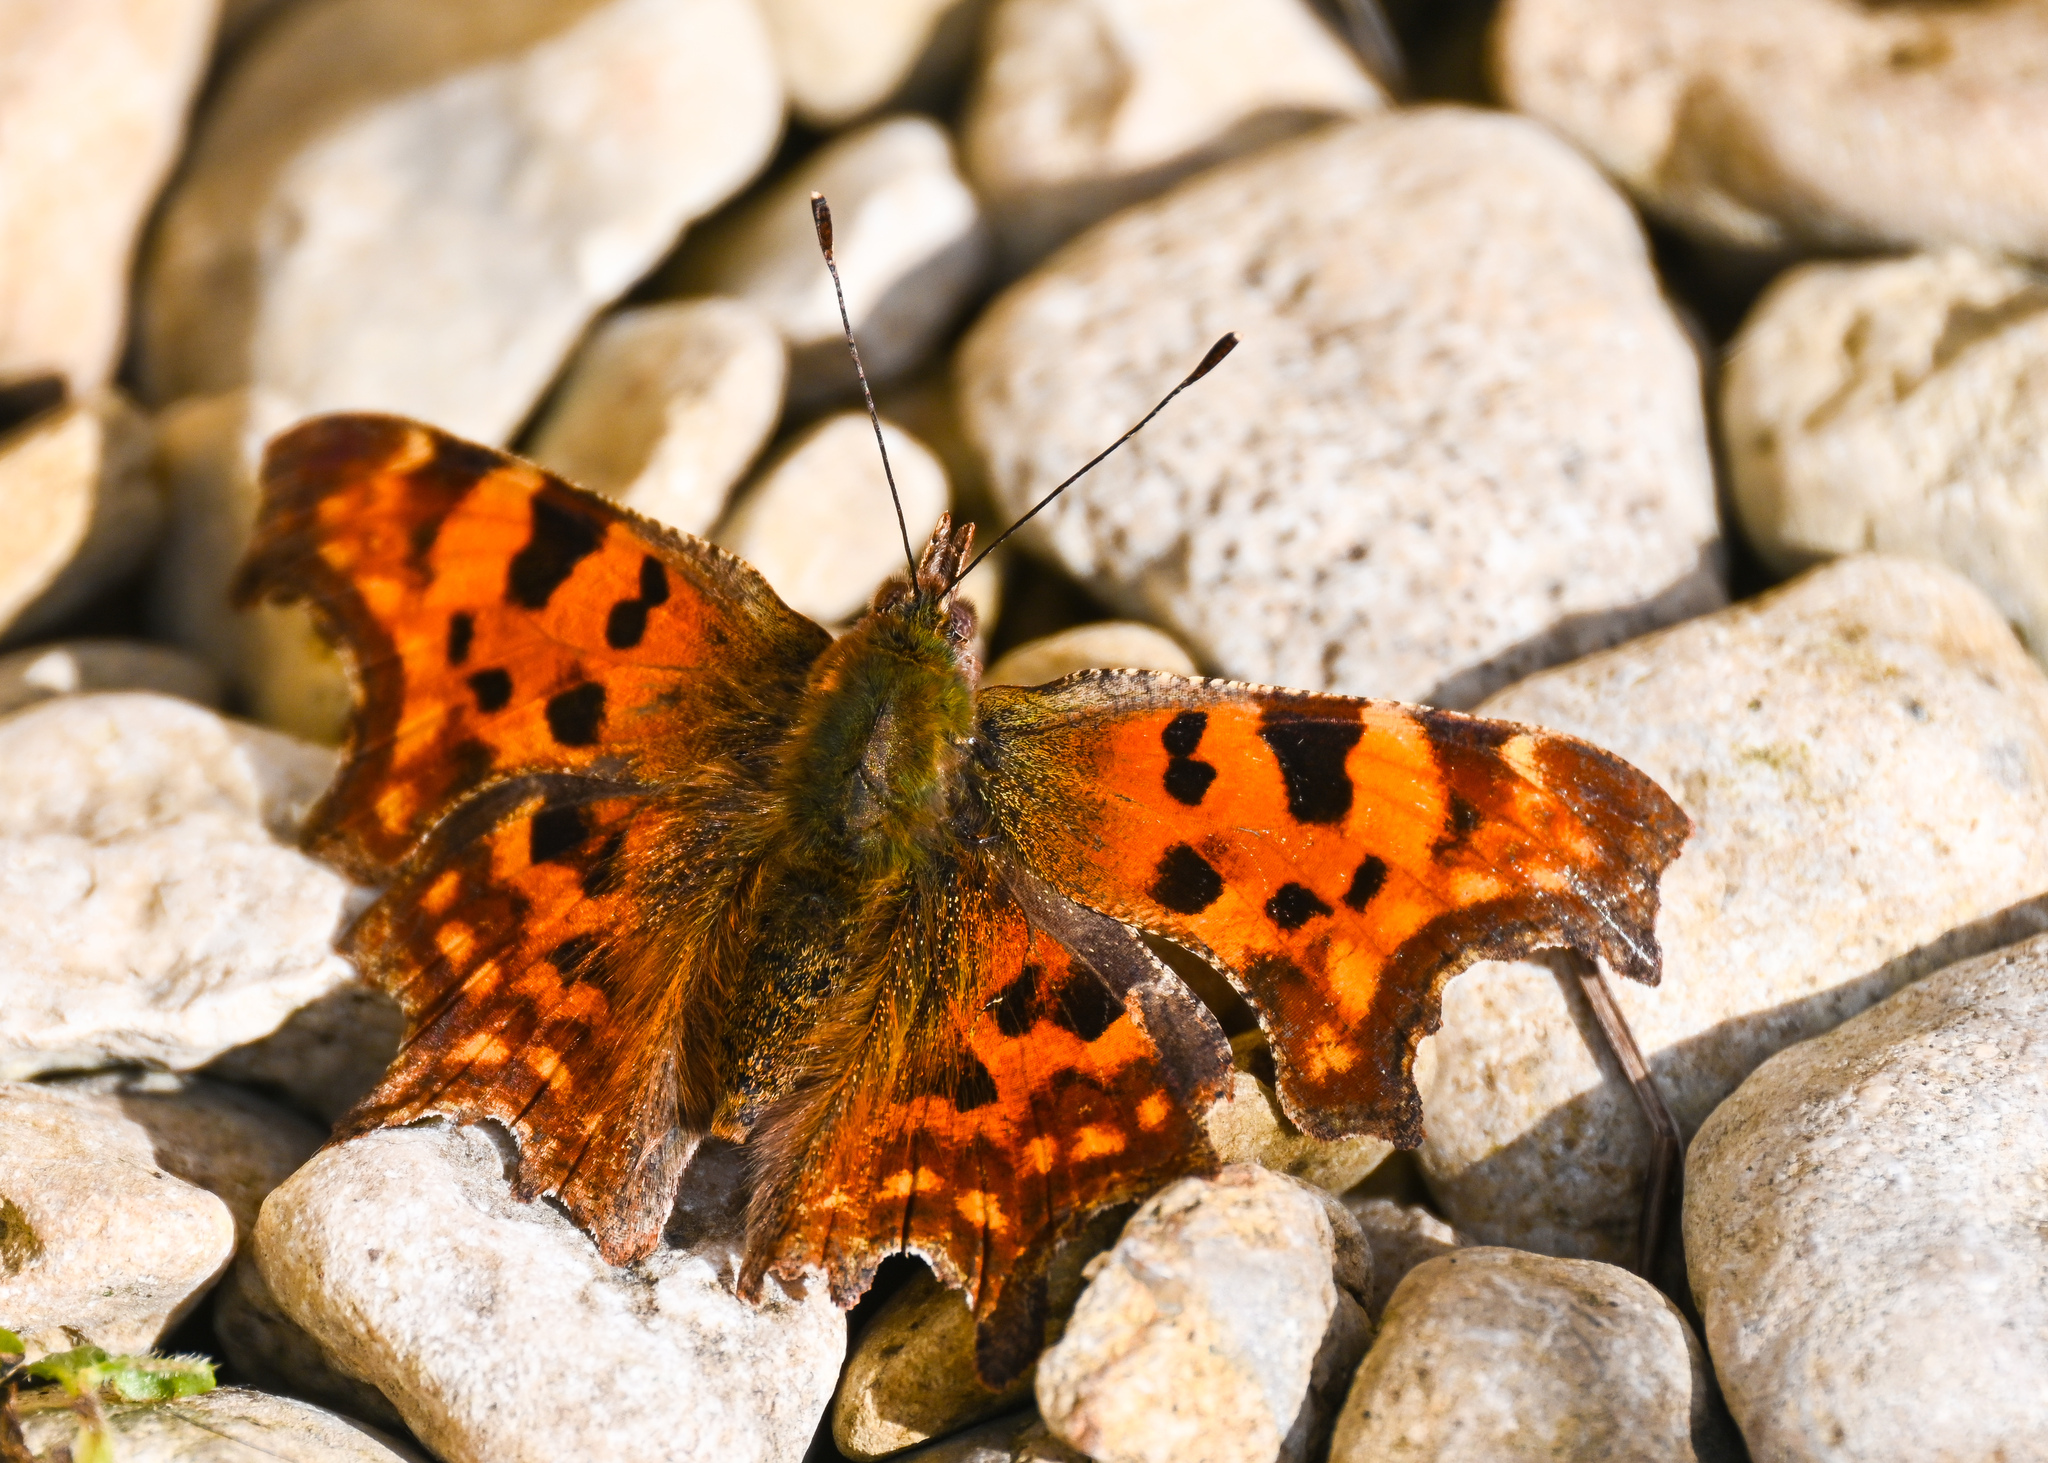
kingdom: Animalia
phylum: Arthropoda
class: Insecta
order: Lepidoptera
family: Nymphalidae
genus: Polygonia
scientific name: Polygonia c-album
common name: Comma
